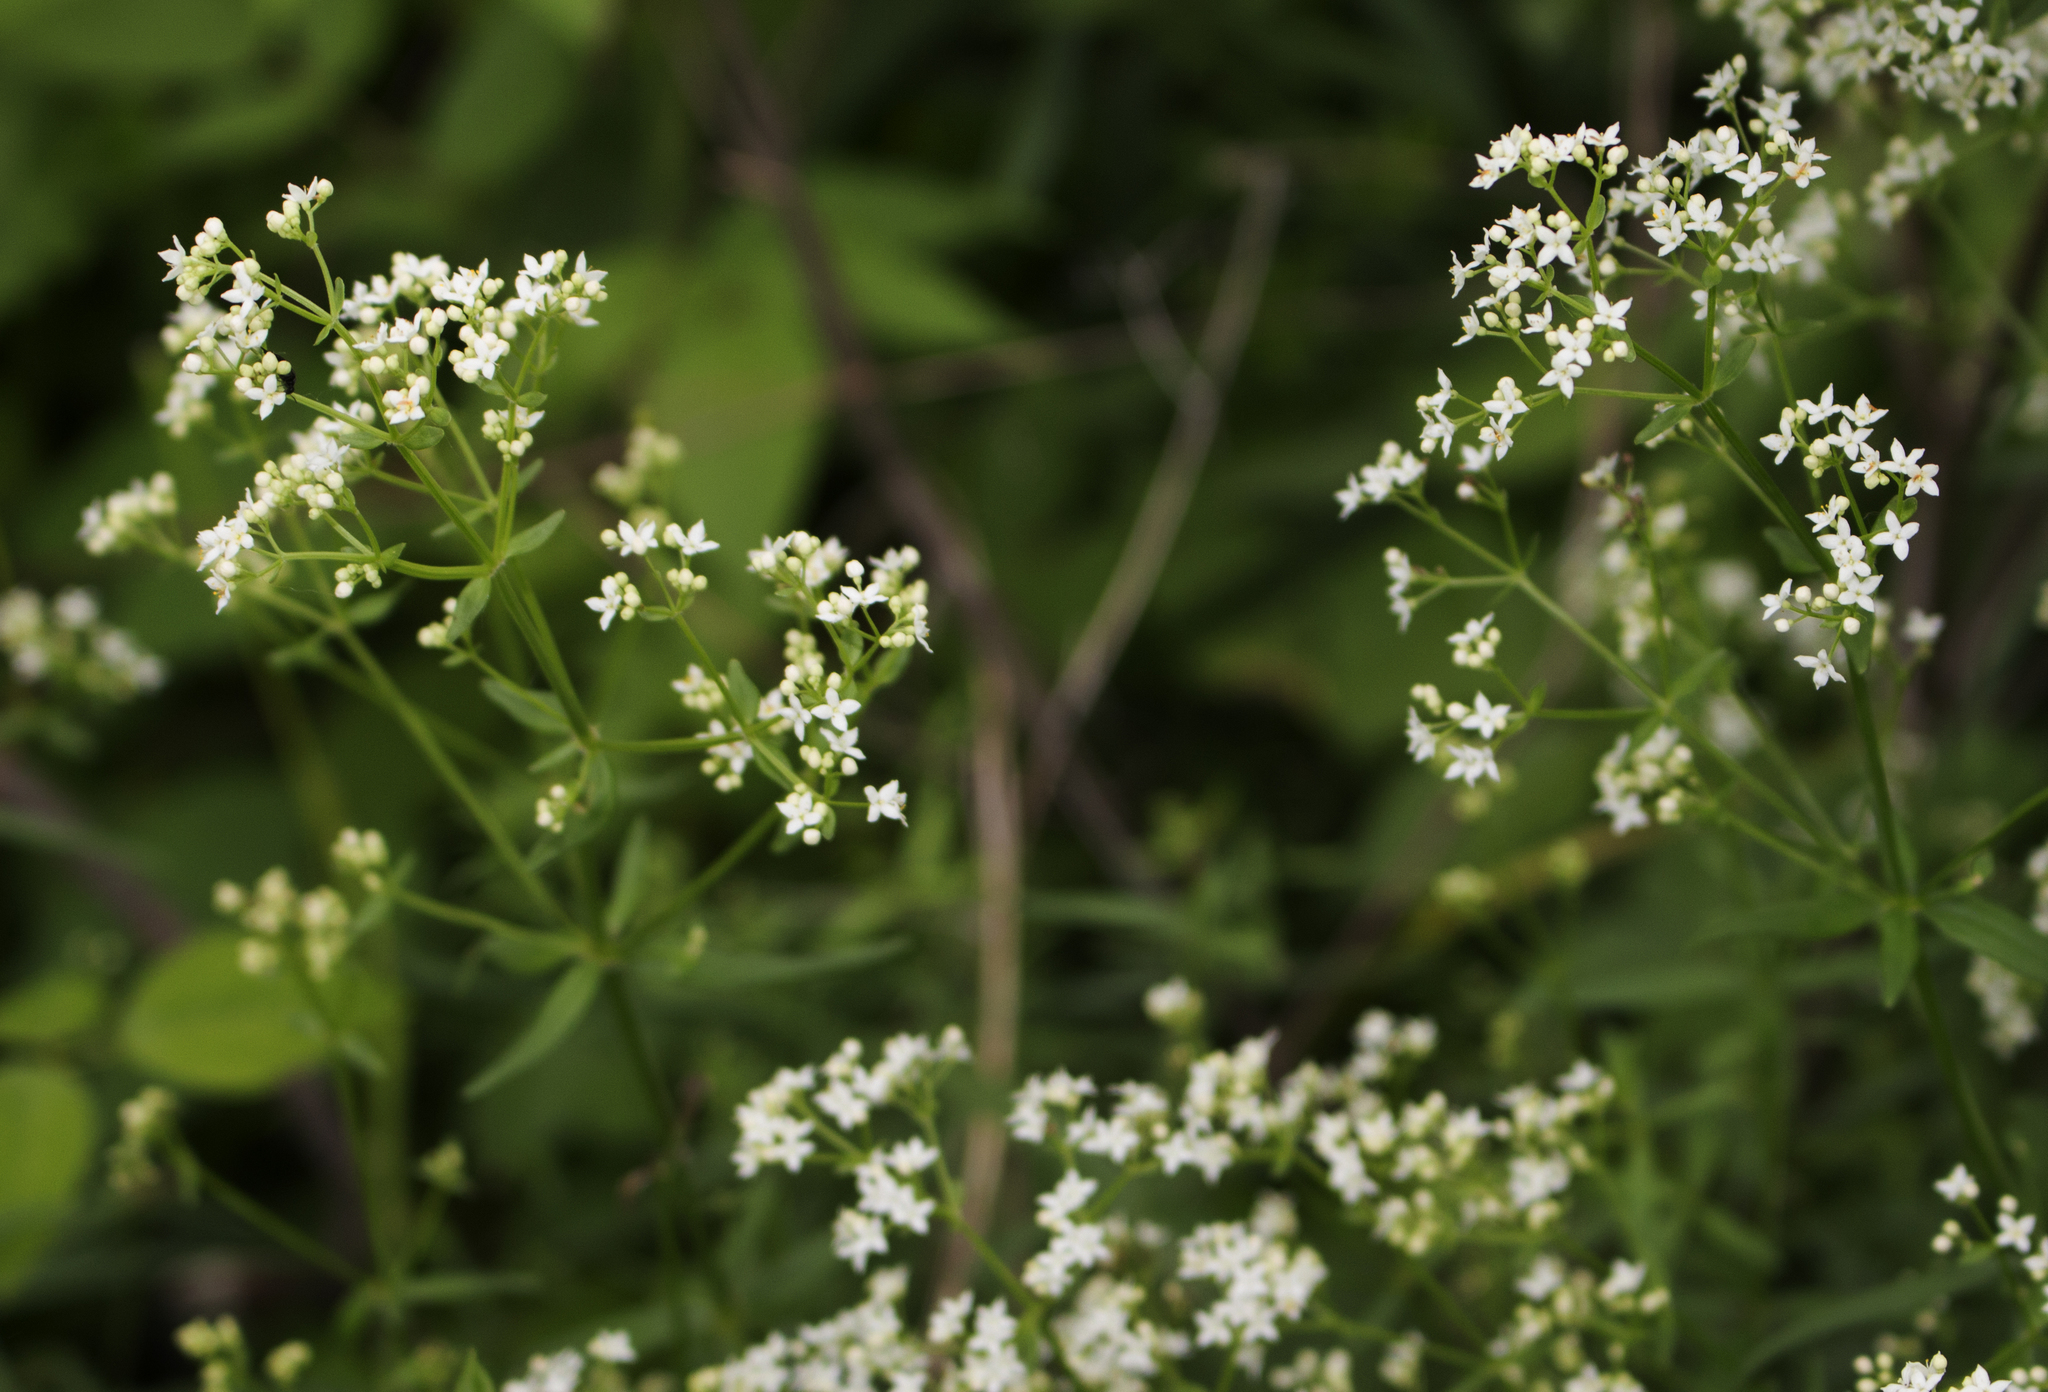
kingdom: Plantae
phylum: Tracheophyta
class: Magnoliopsida
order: Gentianales
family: Rubiaceae
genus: Galium
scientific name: Galium boreale
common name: Northern bedstraw
